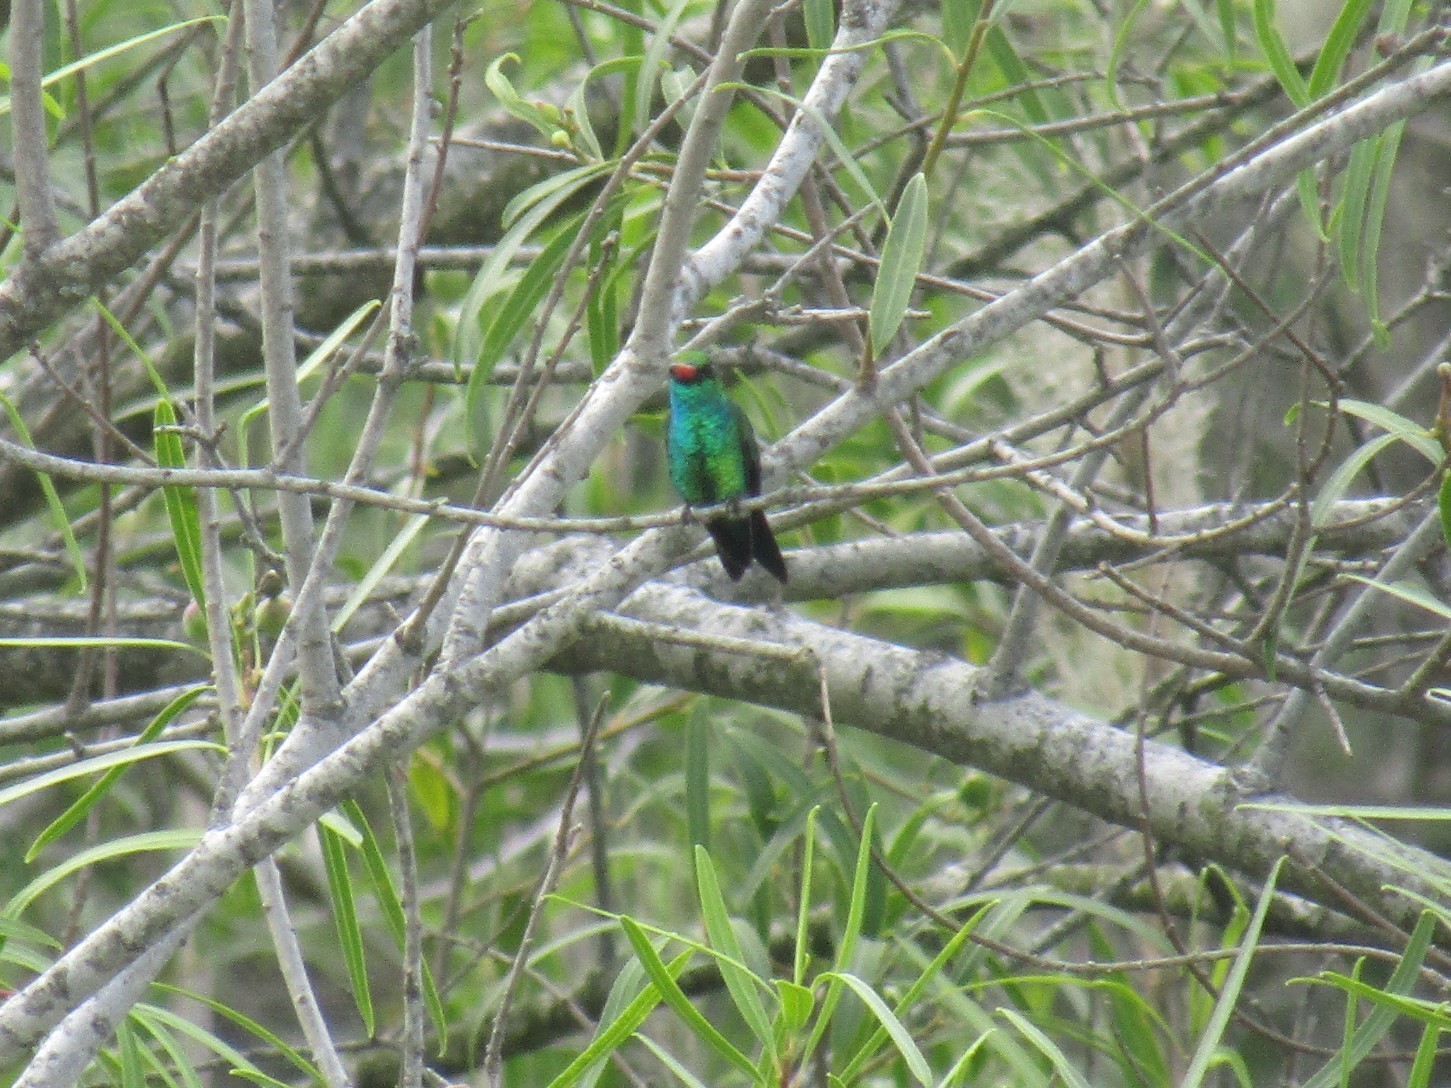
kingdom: Animalia
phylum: Chordata
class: Aves
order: Apodiformes
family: Trochilidae
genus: Chlorostilbon
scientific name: Chlorostilbon lucidus
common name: Glittering-bellied emerald
